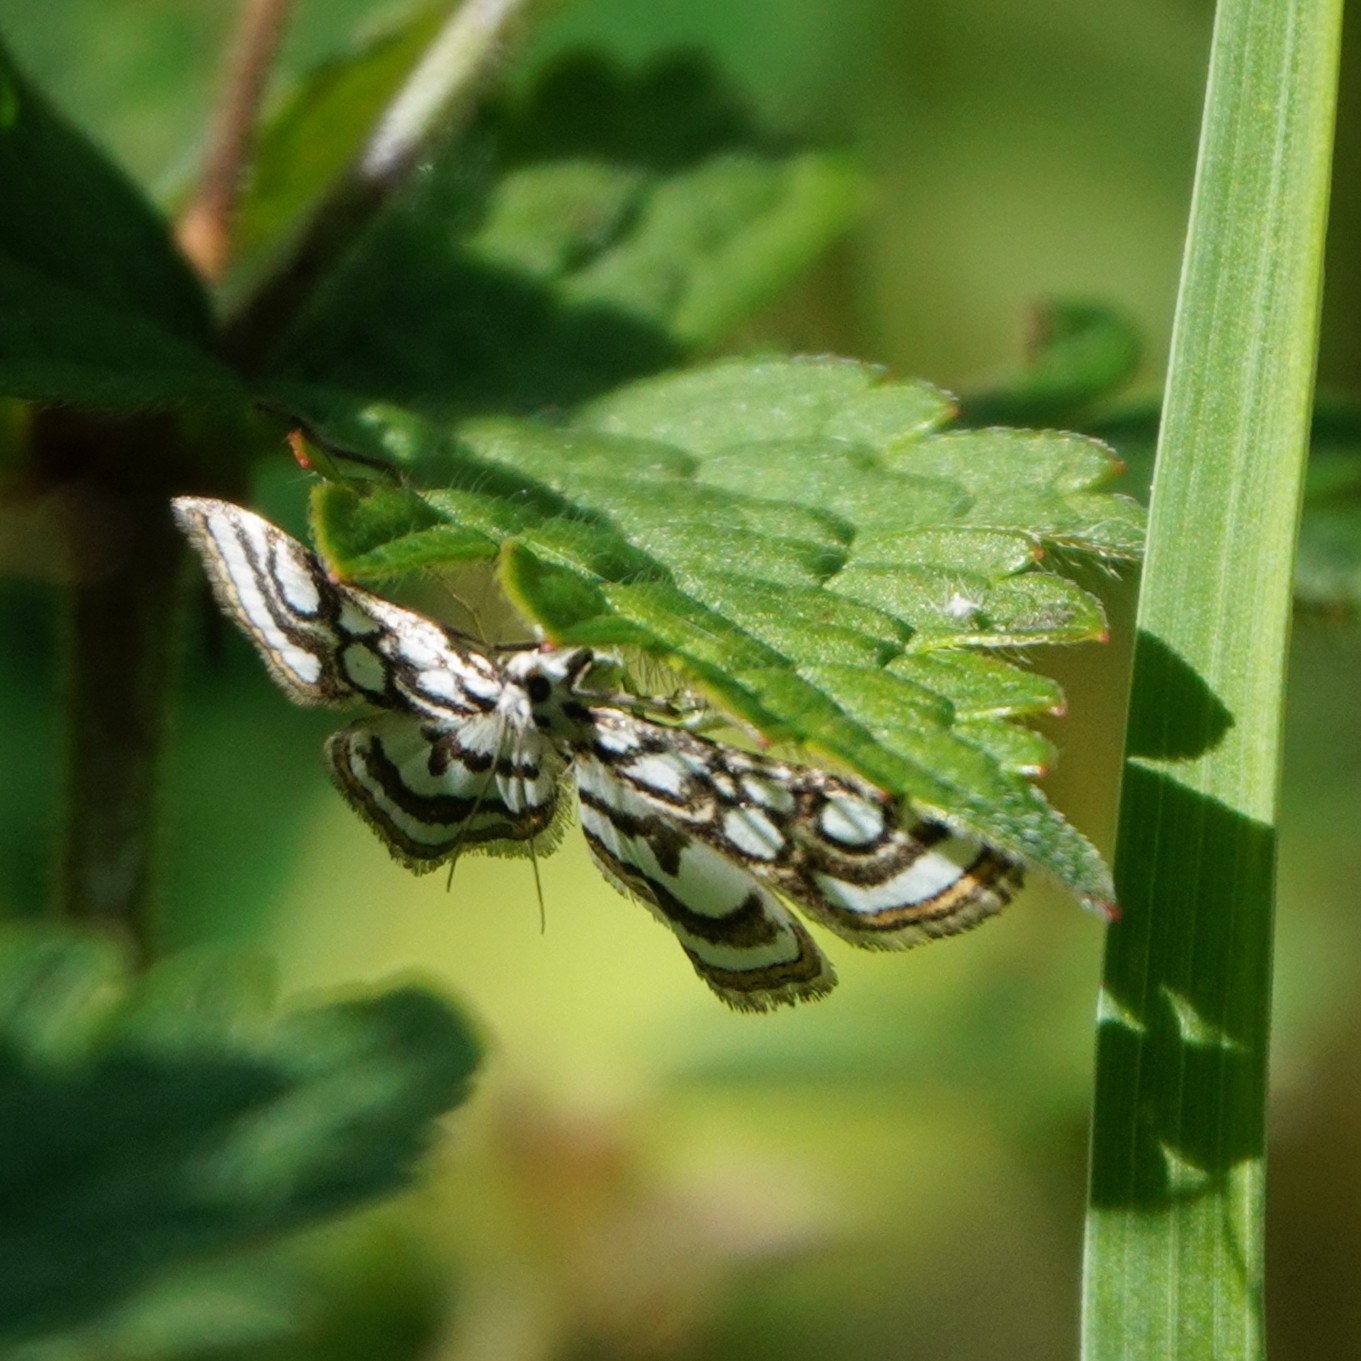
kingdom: Animalia
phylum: Arthropoda
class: Insecta
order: Lepidoptera
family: Crambidae
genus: Nymphula
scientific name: Nymphula nitidulata
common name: Beautiful china mark
